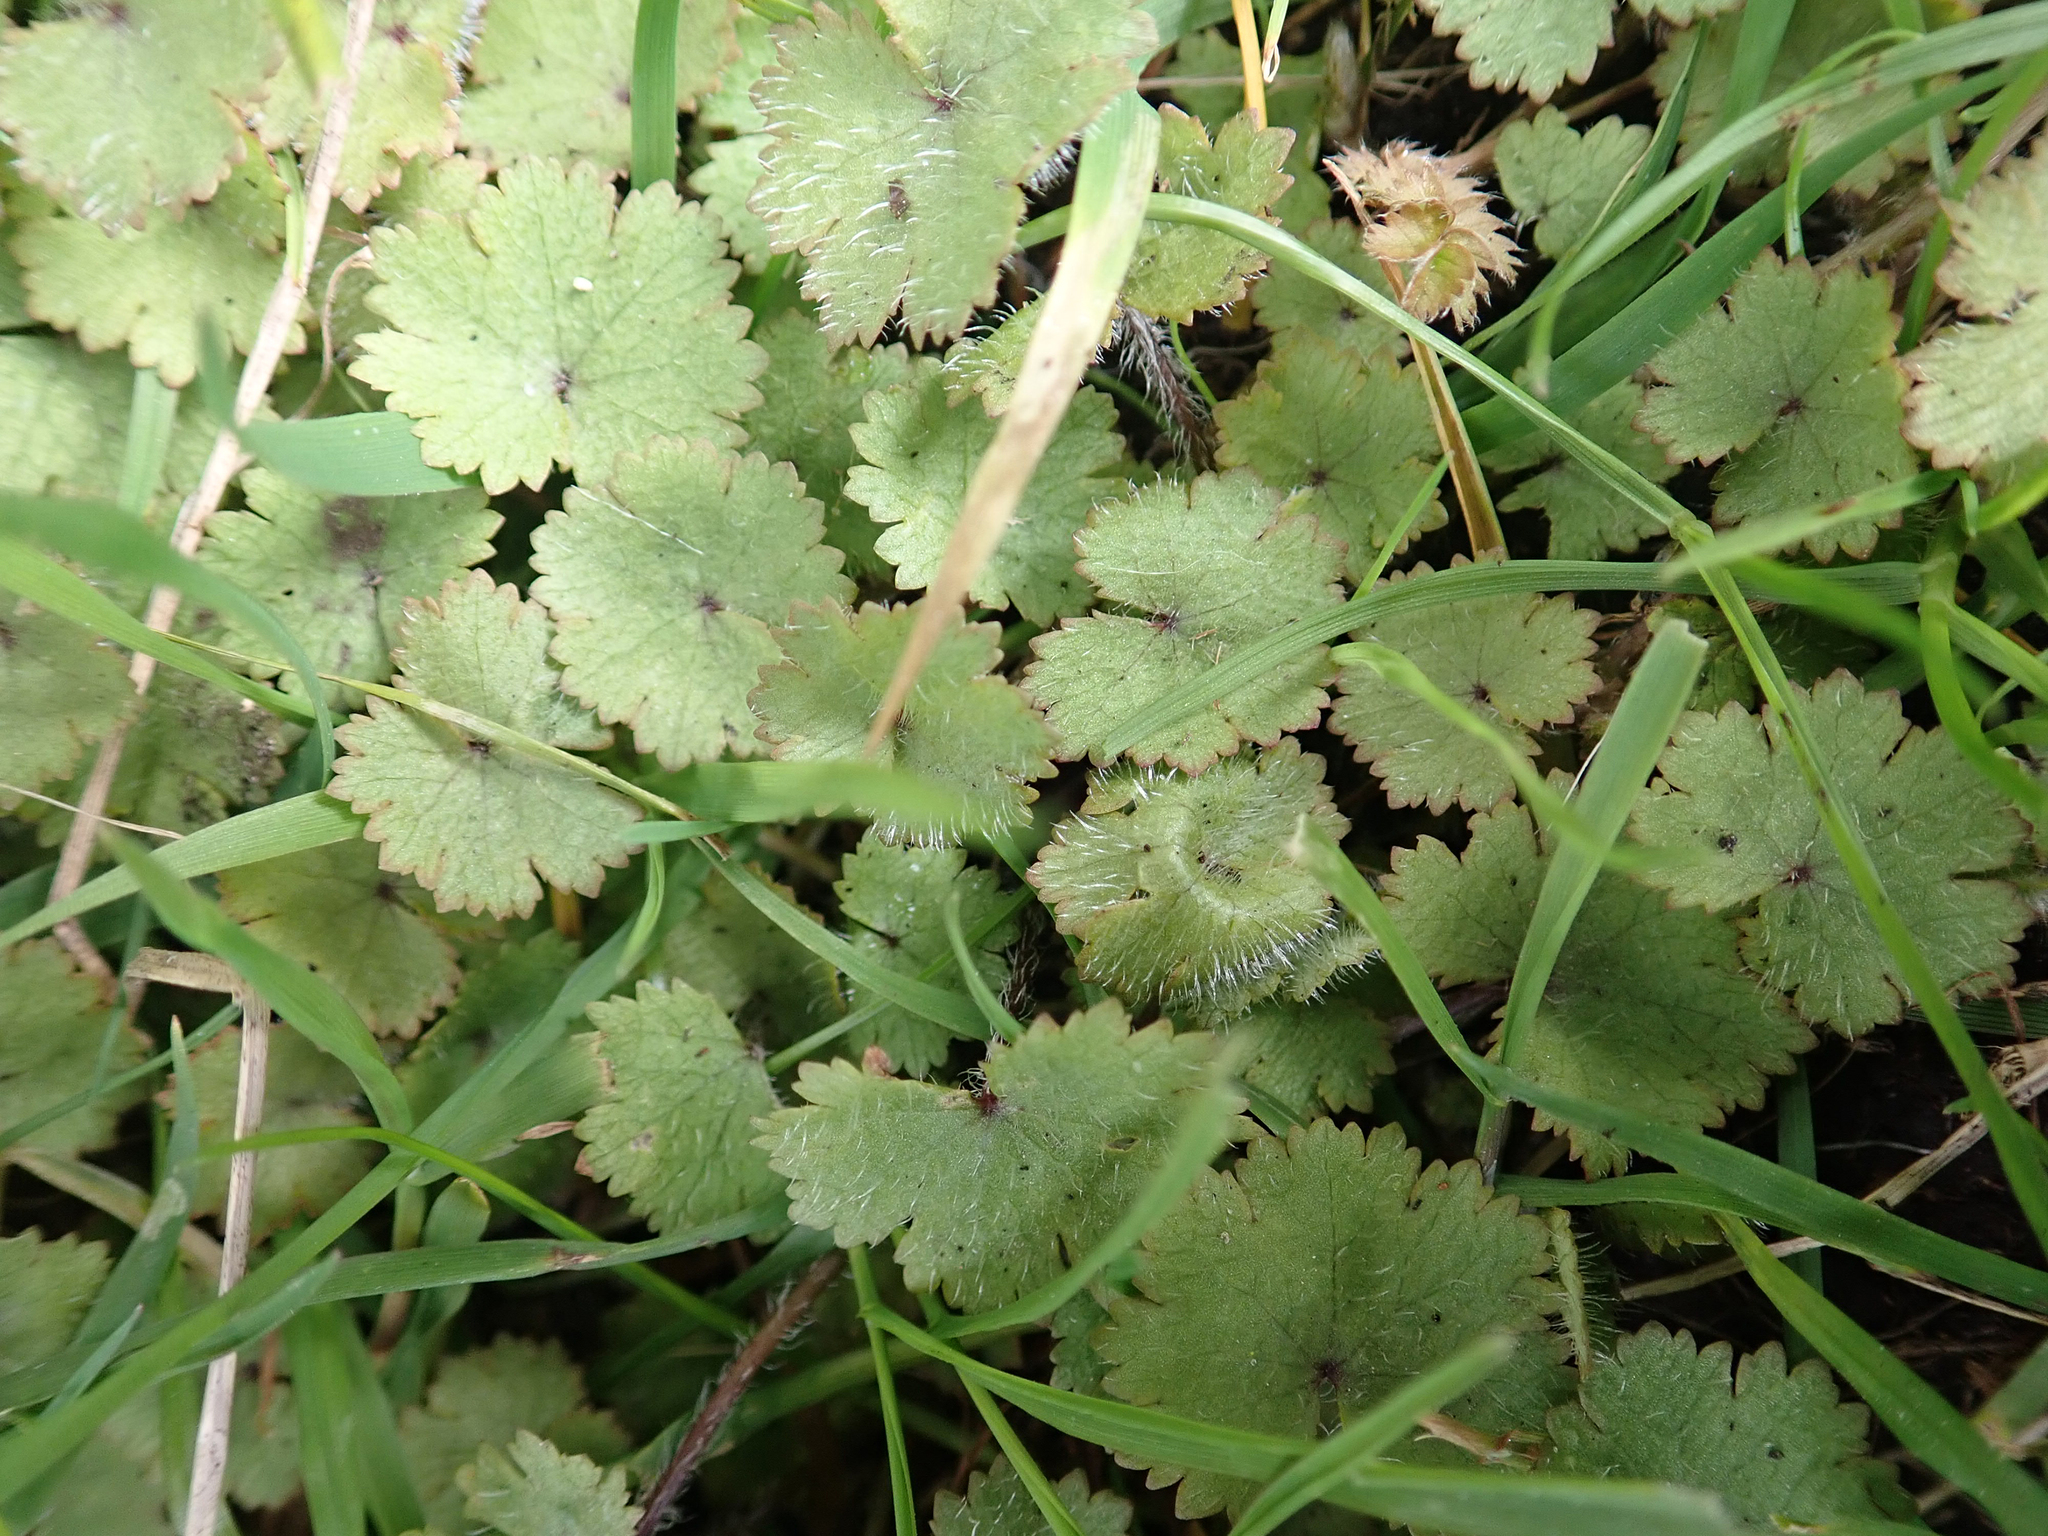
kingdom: Plantae
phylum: Tracheophyta
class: Magnoliopsida
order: Apiales
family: Araliaceae
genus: Hydrocotyle
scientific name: Hydrocotyle moschata
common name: Hairy pennywort
